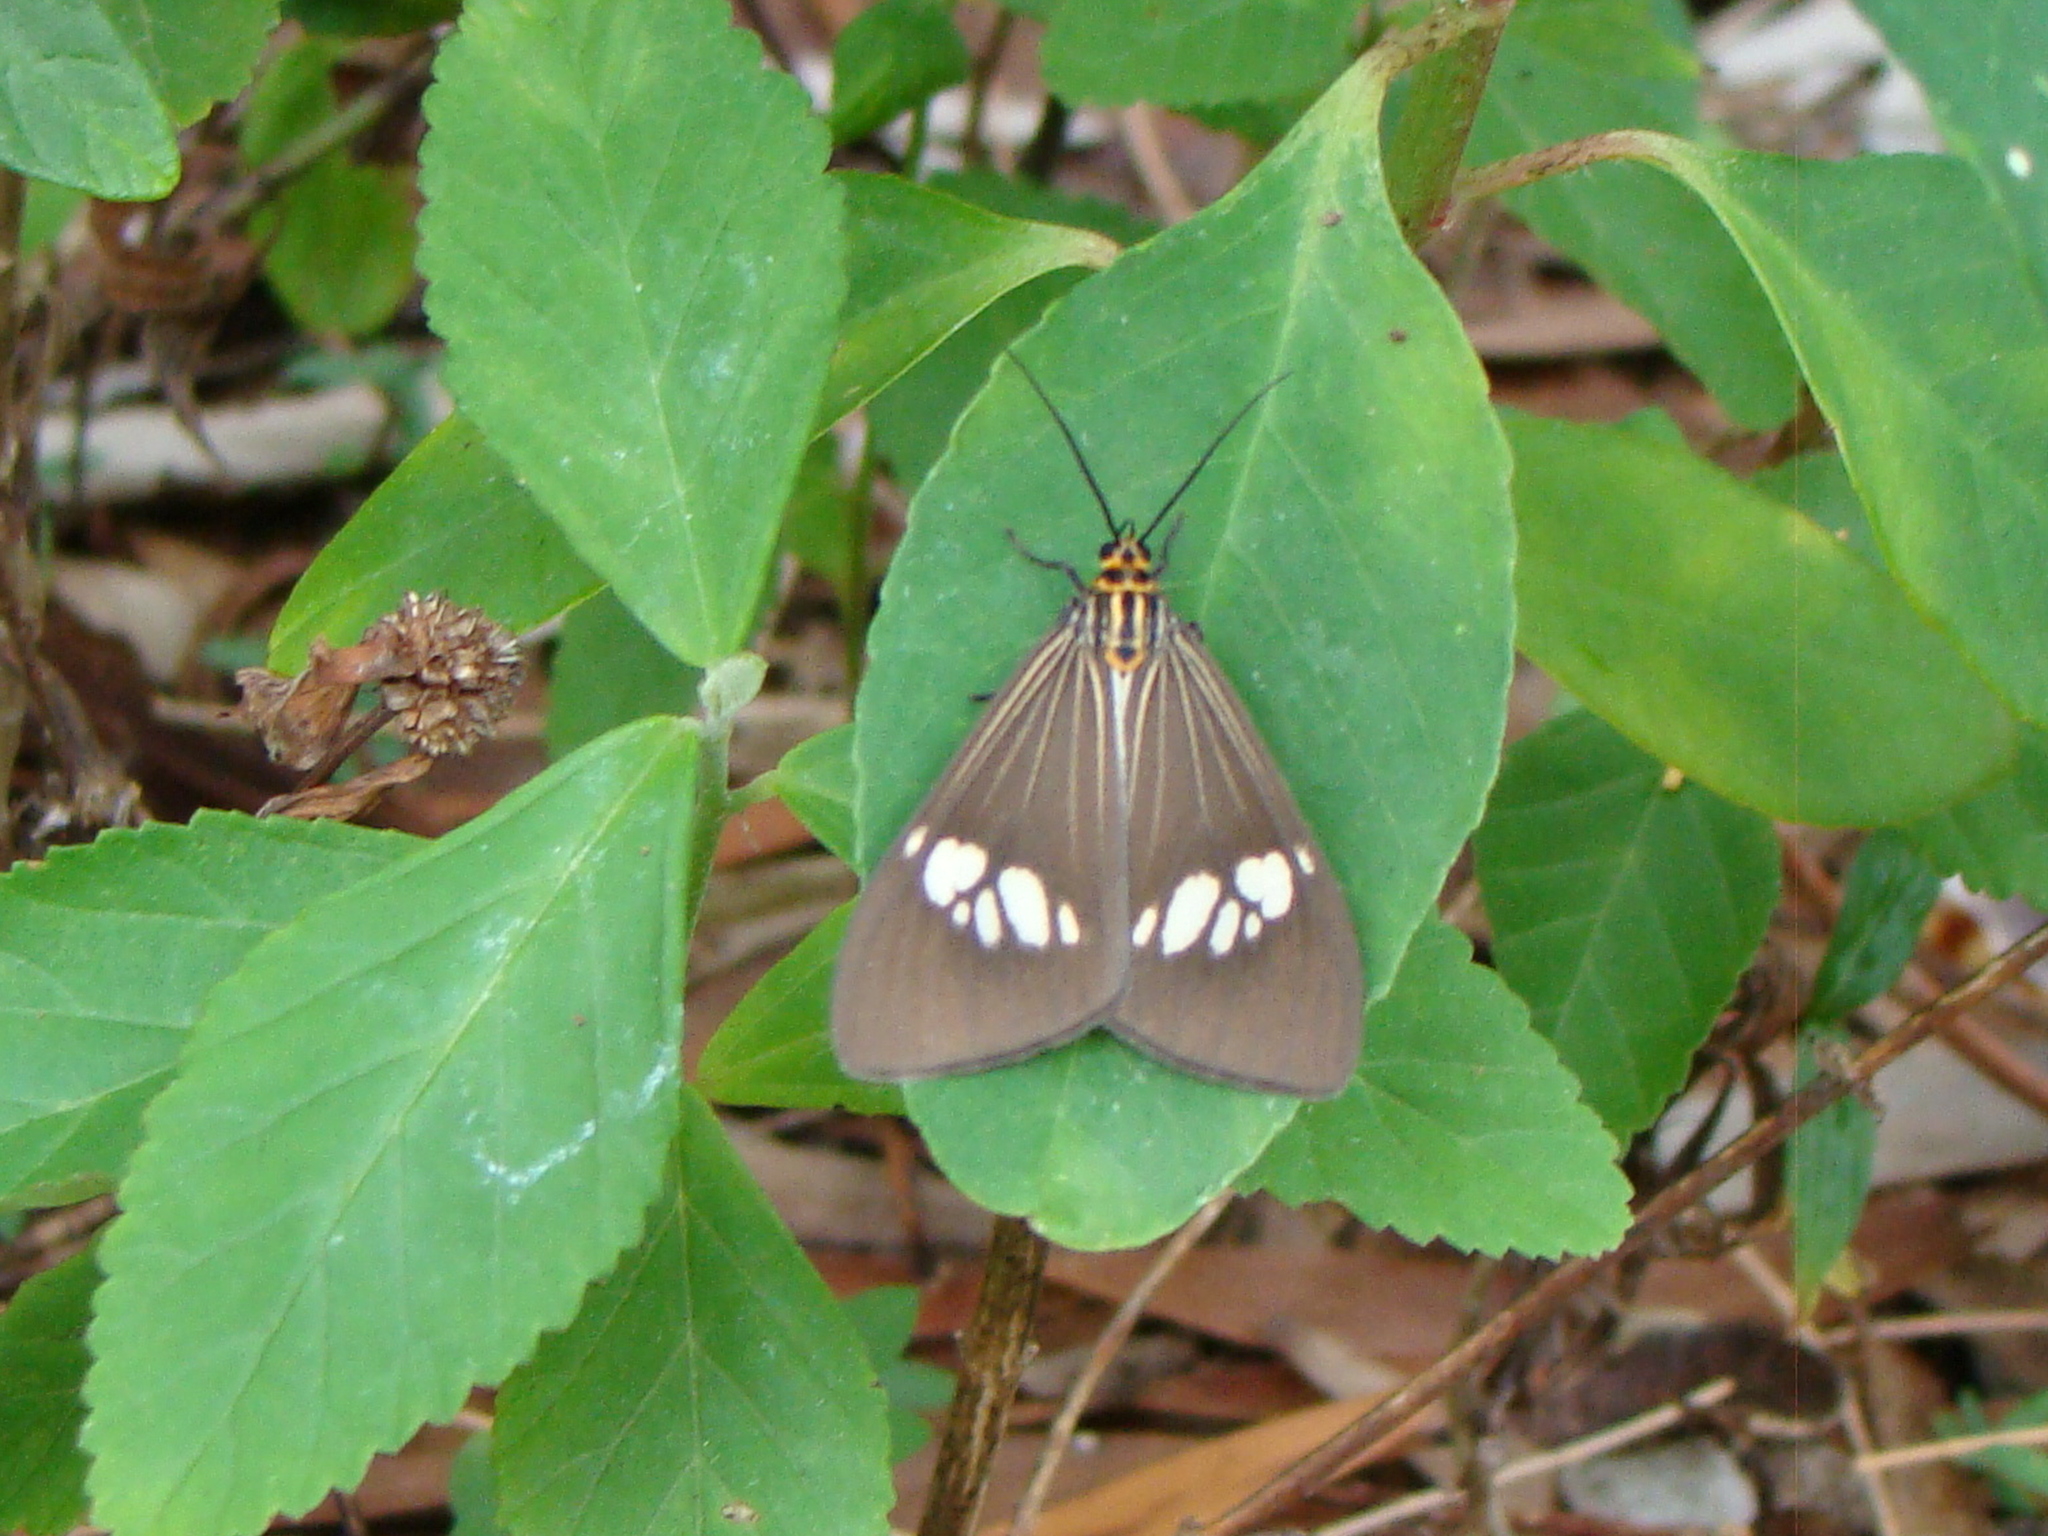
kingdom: Animalia
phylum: Arthropoda
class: Insecta
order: Lepidoptera
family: Erebidae
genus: Nyctemera
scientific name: Nyctemera baulus
